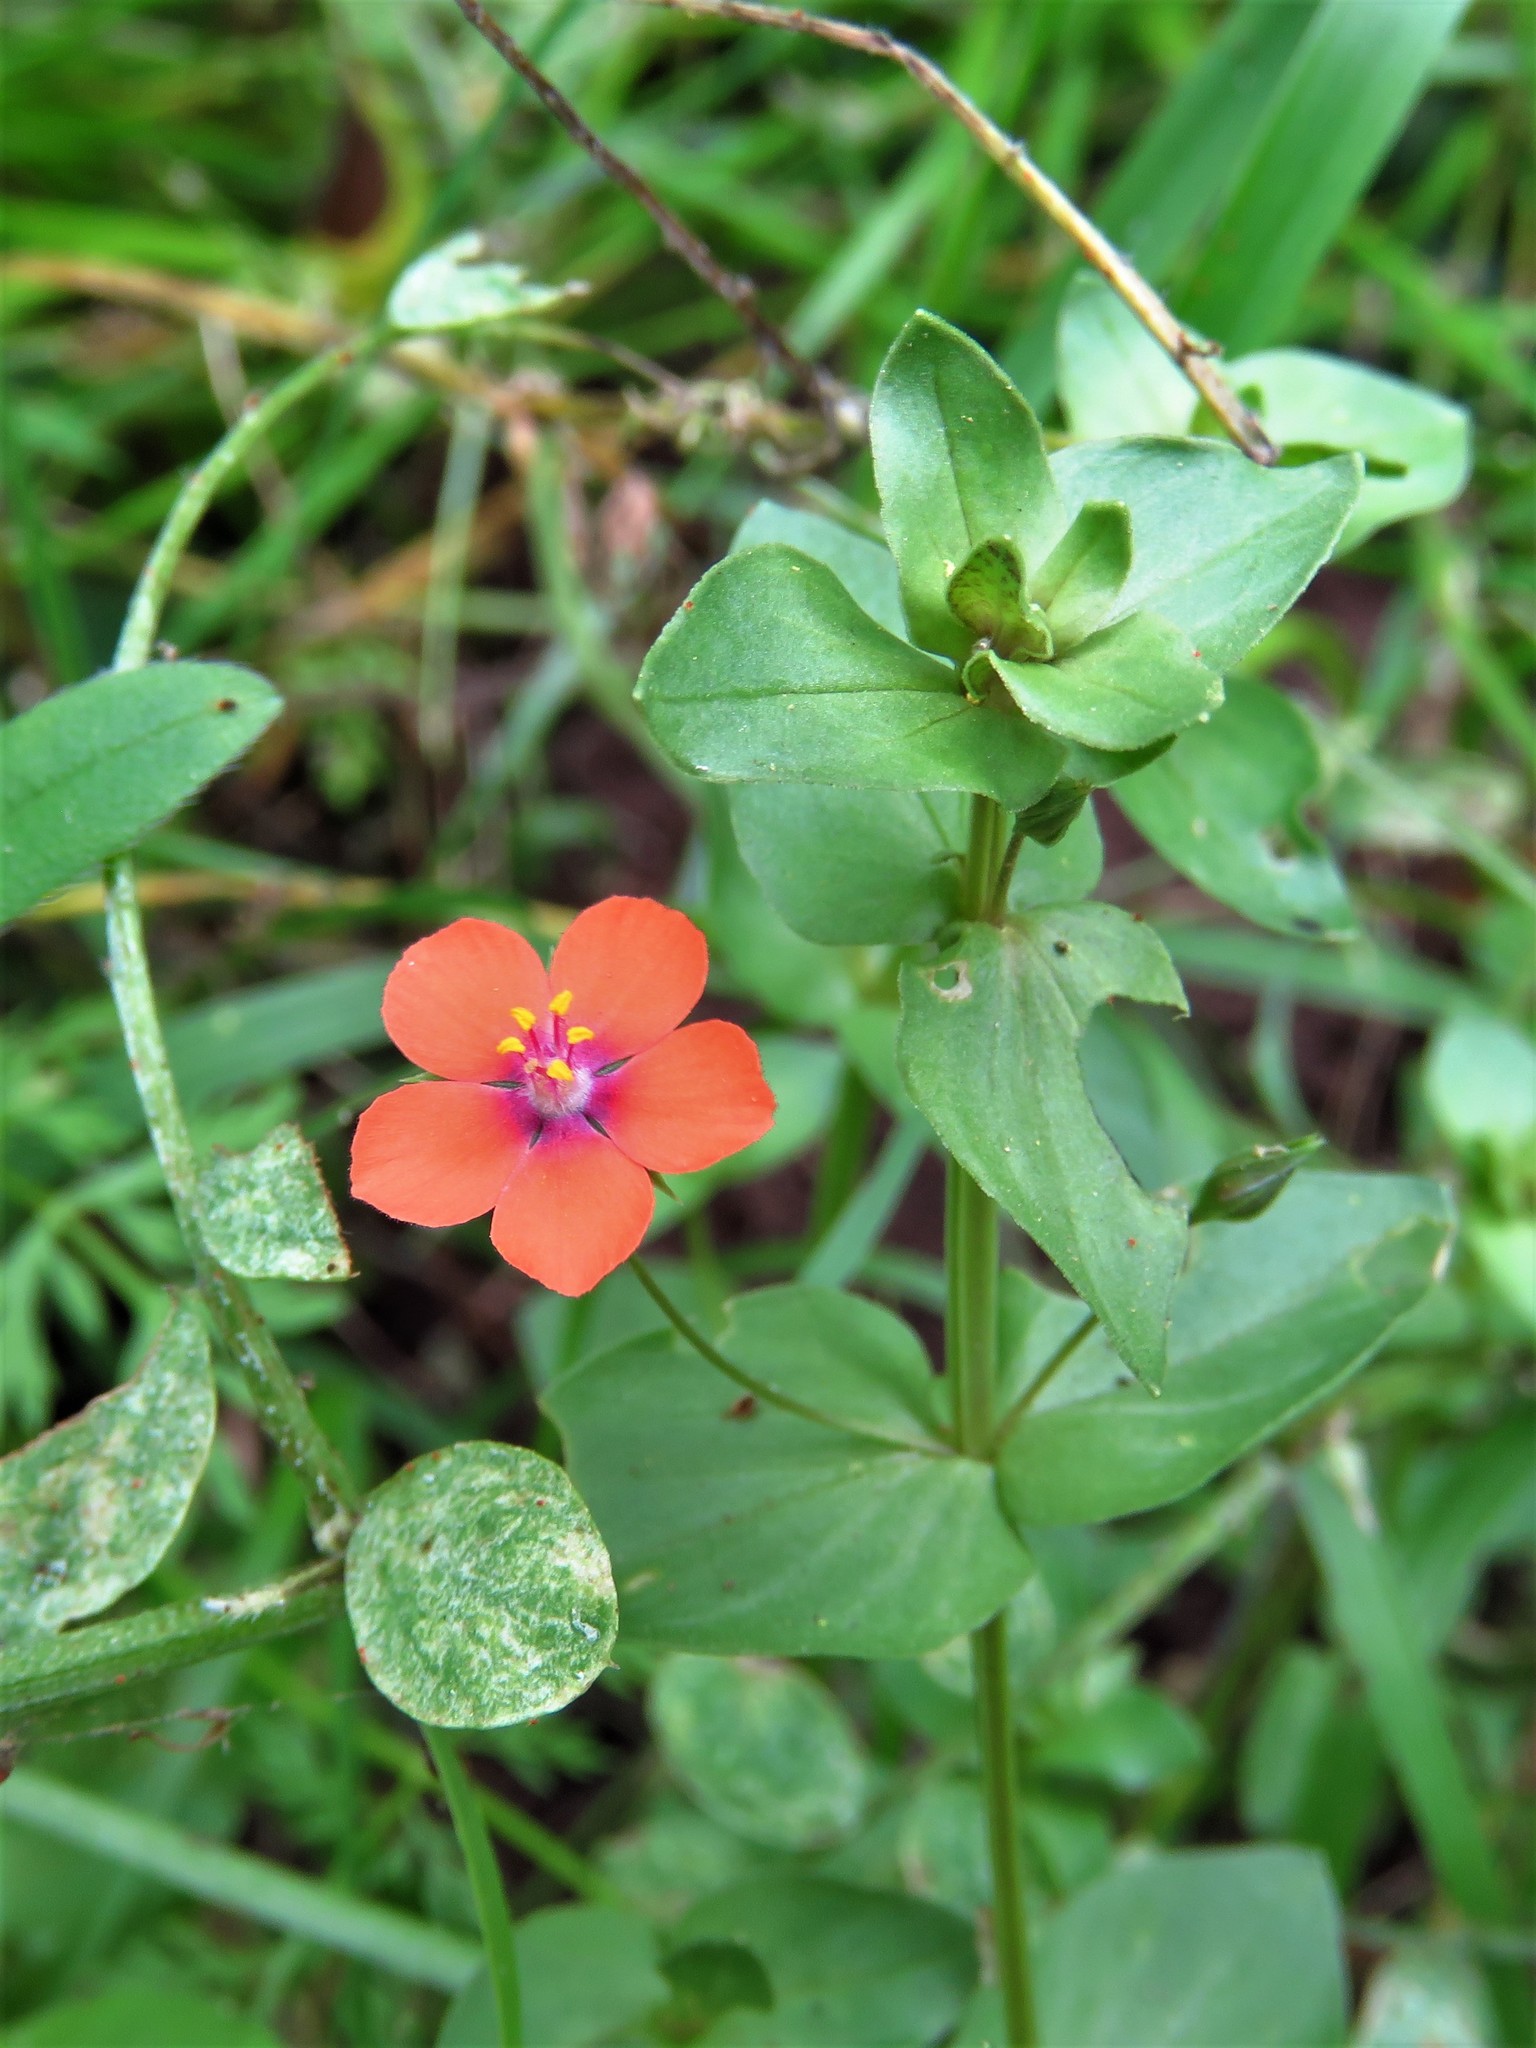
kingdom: Plantae
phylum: Tracheophyta
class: Magnoliopsida
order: Ericales
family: Primulaceae
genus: Lysimachia
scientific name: Lysimachia arvensis
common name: Scarlet pimpernel
